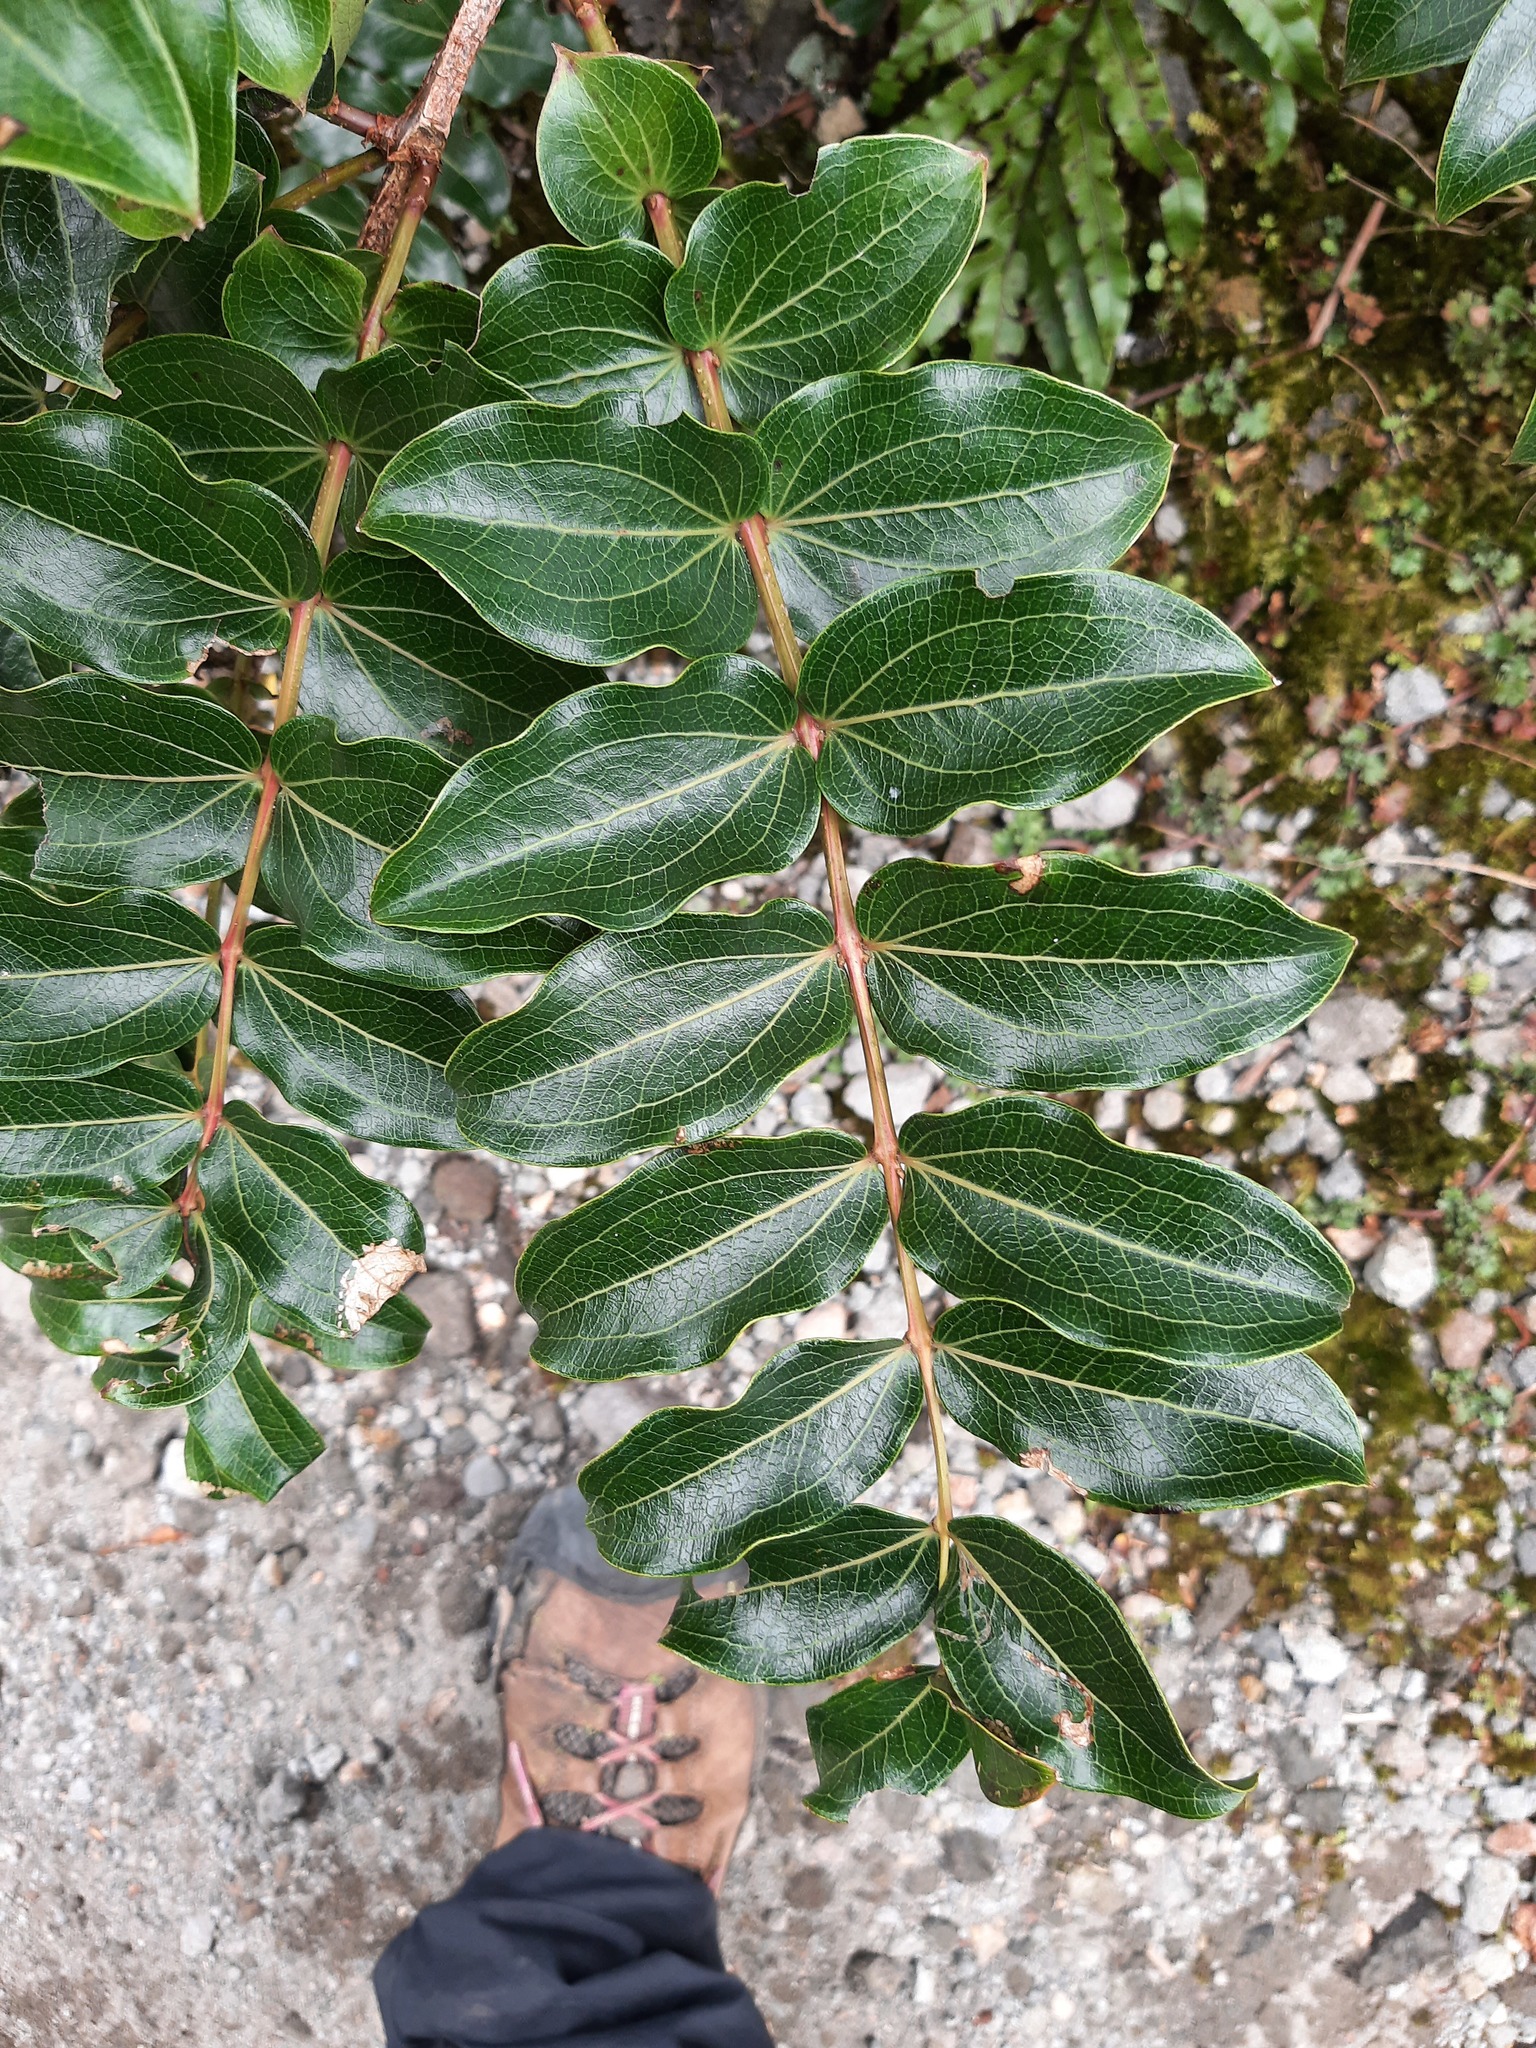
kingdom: Plantae
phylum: Tracheophyta
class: Magnoliopsida
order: Cucurbitales
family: Coriariaceae
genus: Coriaria
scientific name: Coriaria arborea
